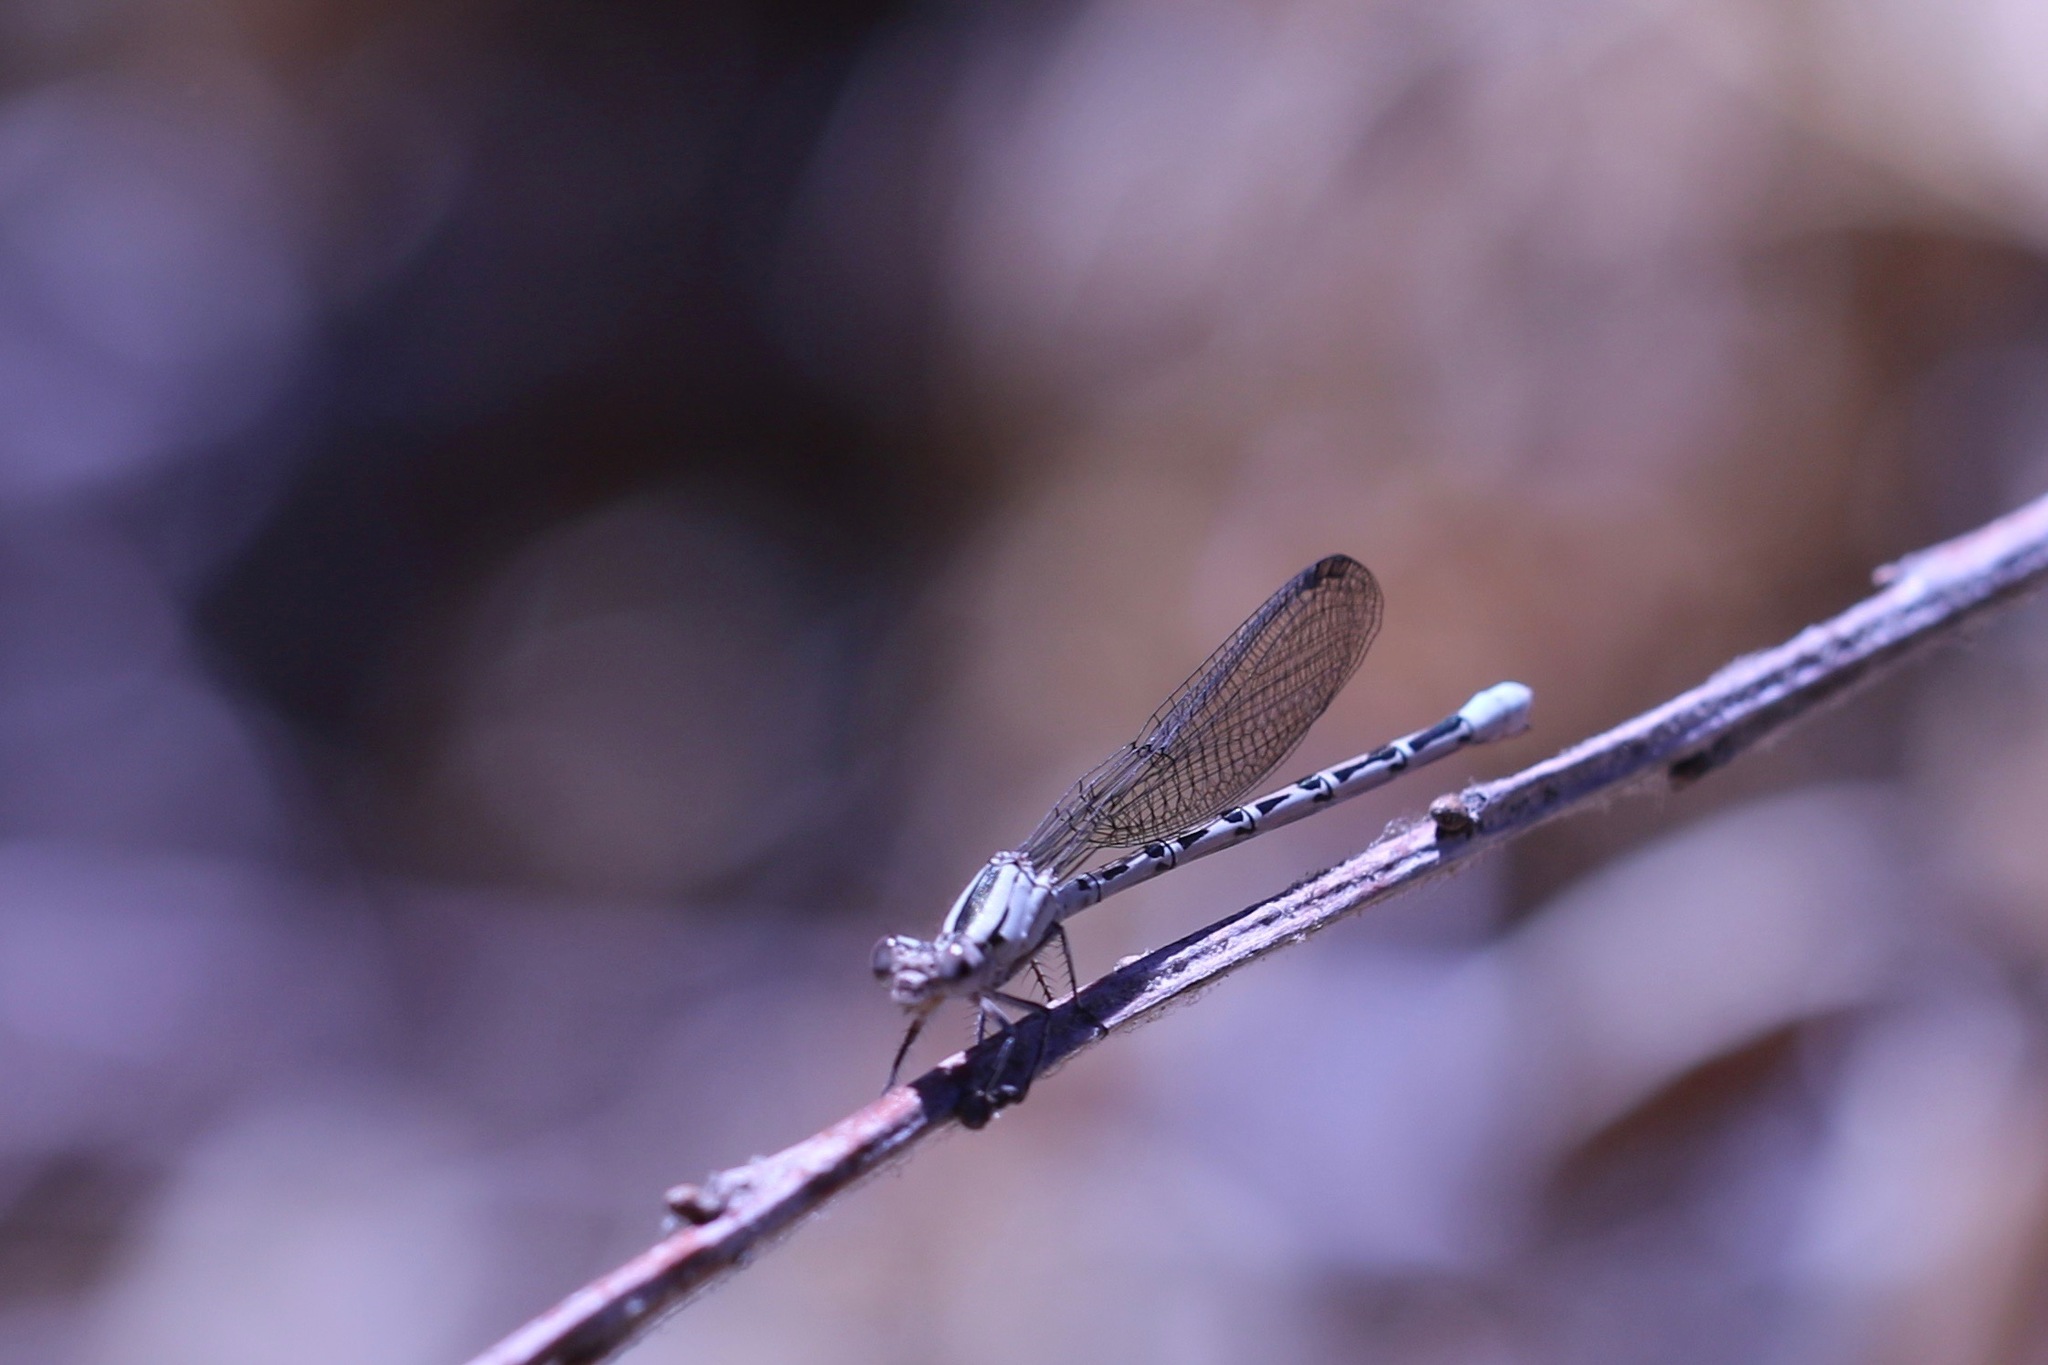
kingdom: Animalia
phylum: Arthropoda
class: Insecta
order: Odonata
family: Coenagrionidae
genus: Argia
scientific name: Argia vivida
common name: Vivid dancer
